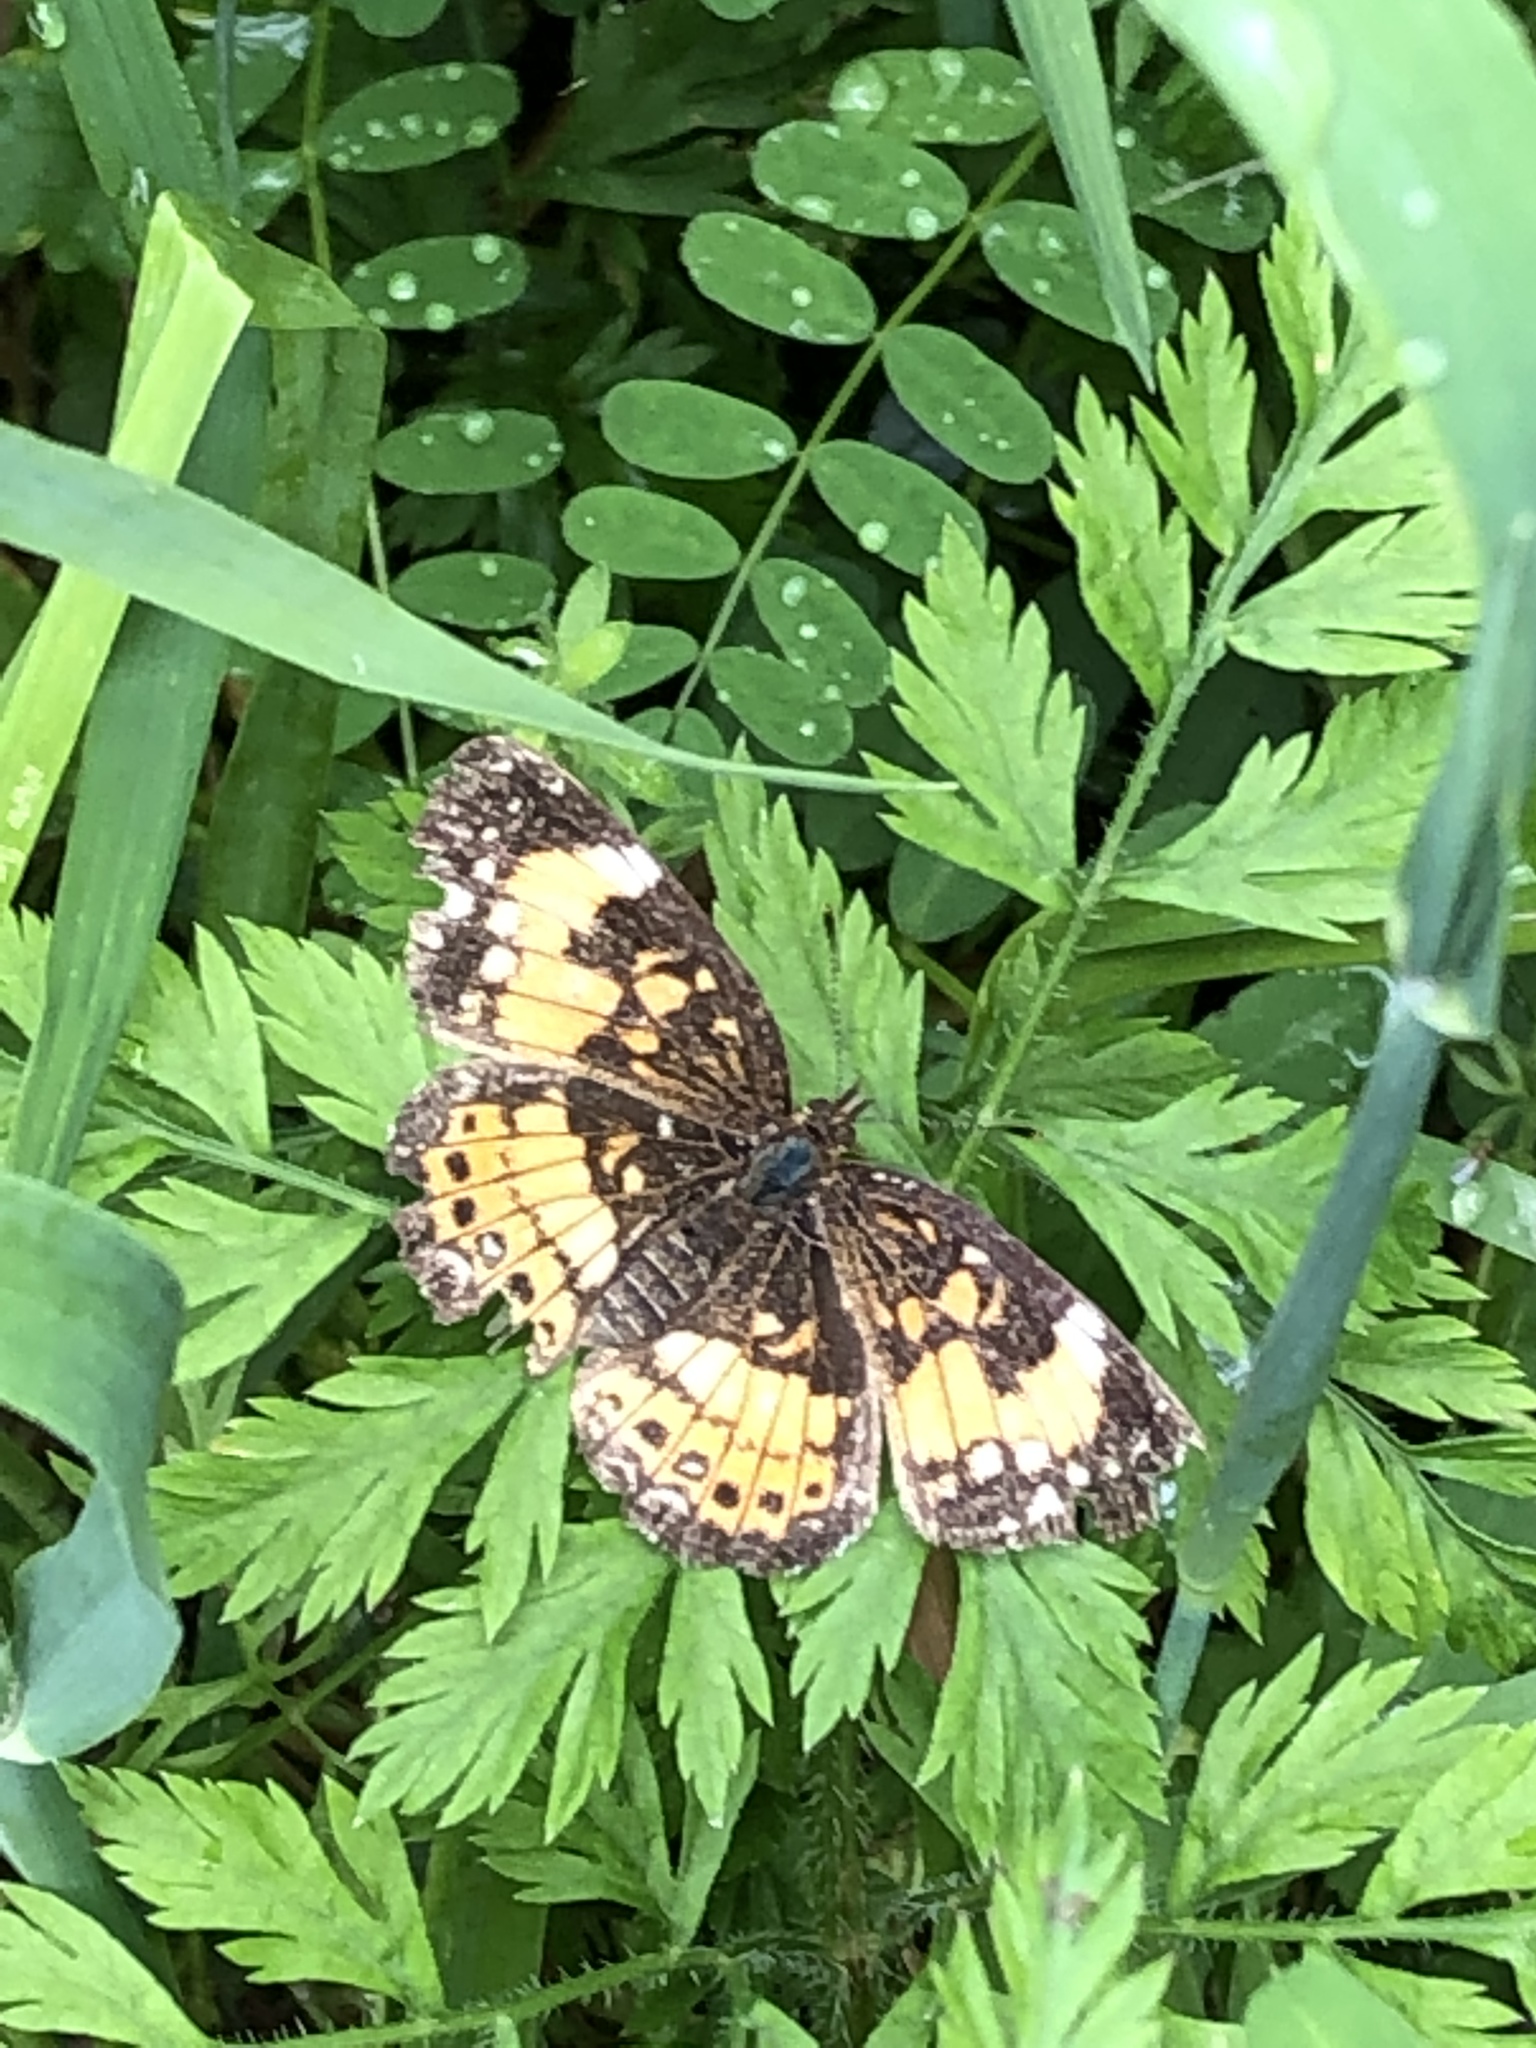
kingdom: Animalia
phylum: Arthropoda
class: Insecta
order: Lepidoptera
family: Nymphalidae
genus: Chlosyne
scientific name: Chlosyne nycteis
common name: Silvery checkerspot
